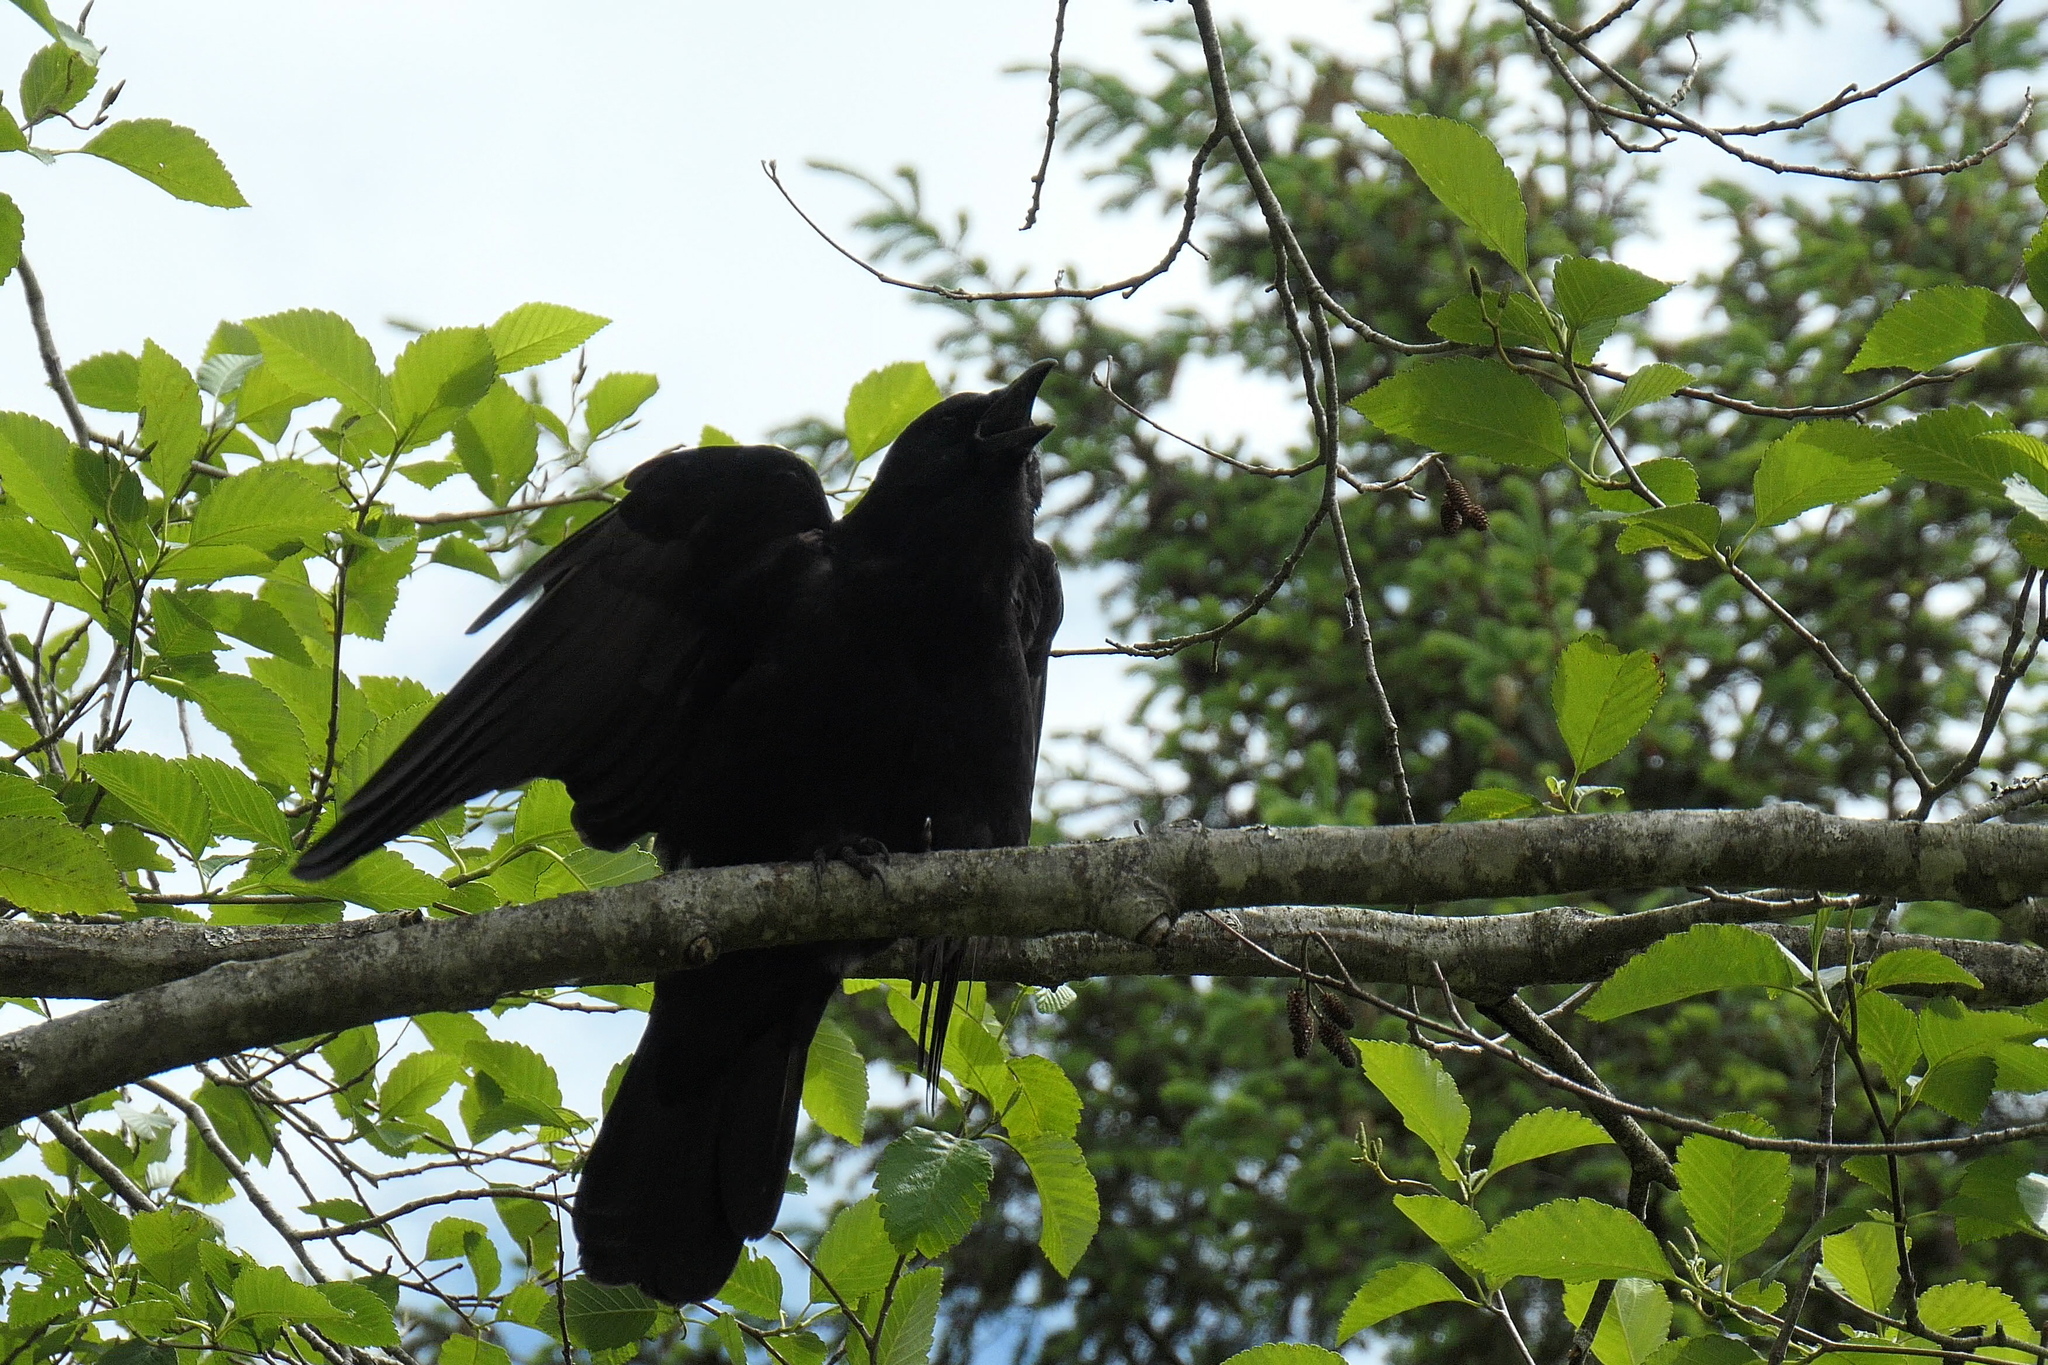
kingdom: Animalia
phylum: Chordata
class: Aves
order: Passeriformes
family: Corvidae
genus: Corvus
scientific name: Corvus brachyrhynchos
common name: American crow
